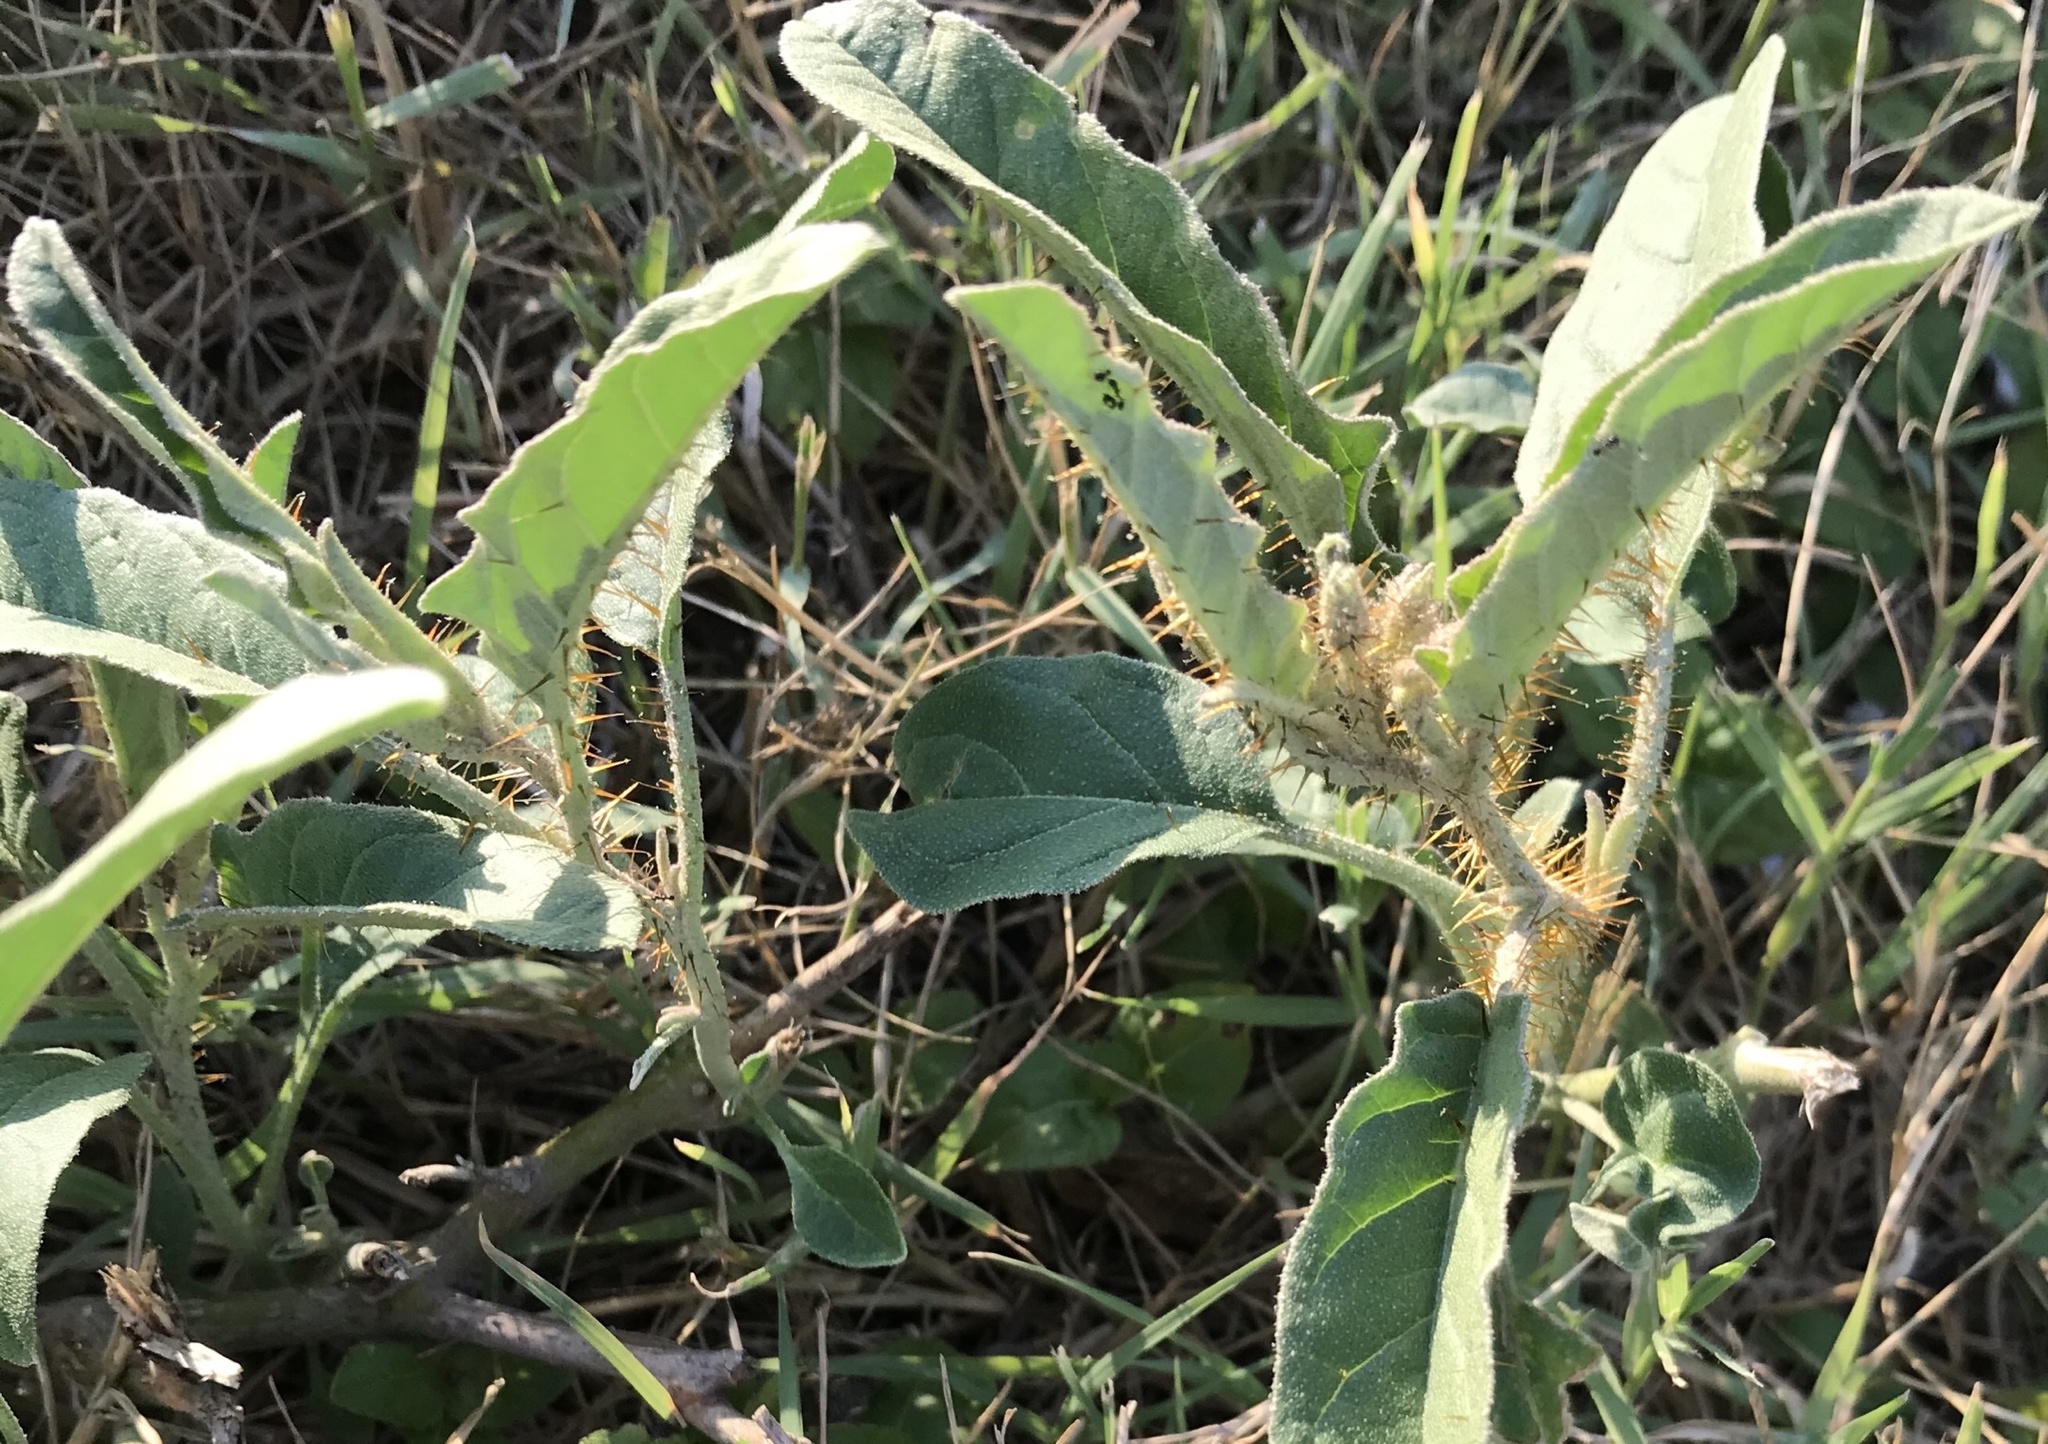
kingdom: Plantae
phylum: Tracheophyta
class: Magnoliopsida
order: Solanales
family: Solanaceae
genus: Solanum
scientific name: Solanum elaeagnifolium
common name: Silverleaf nightshade
